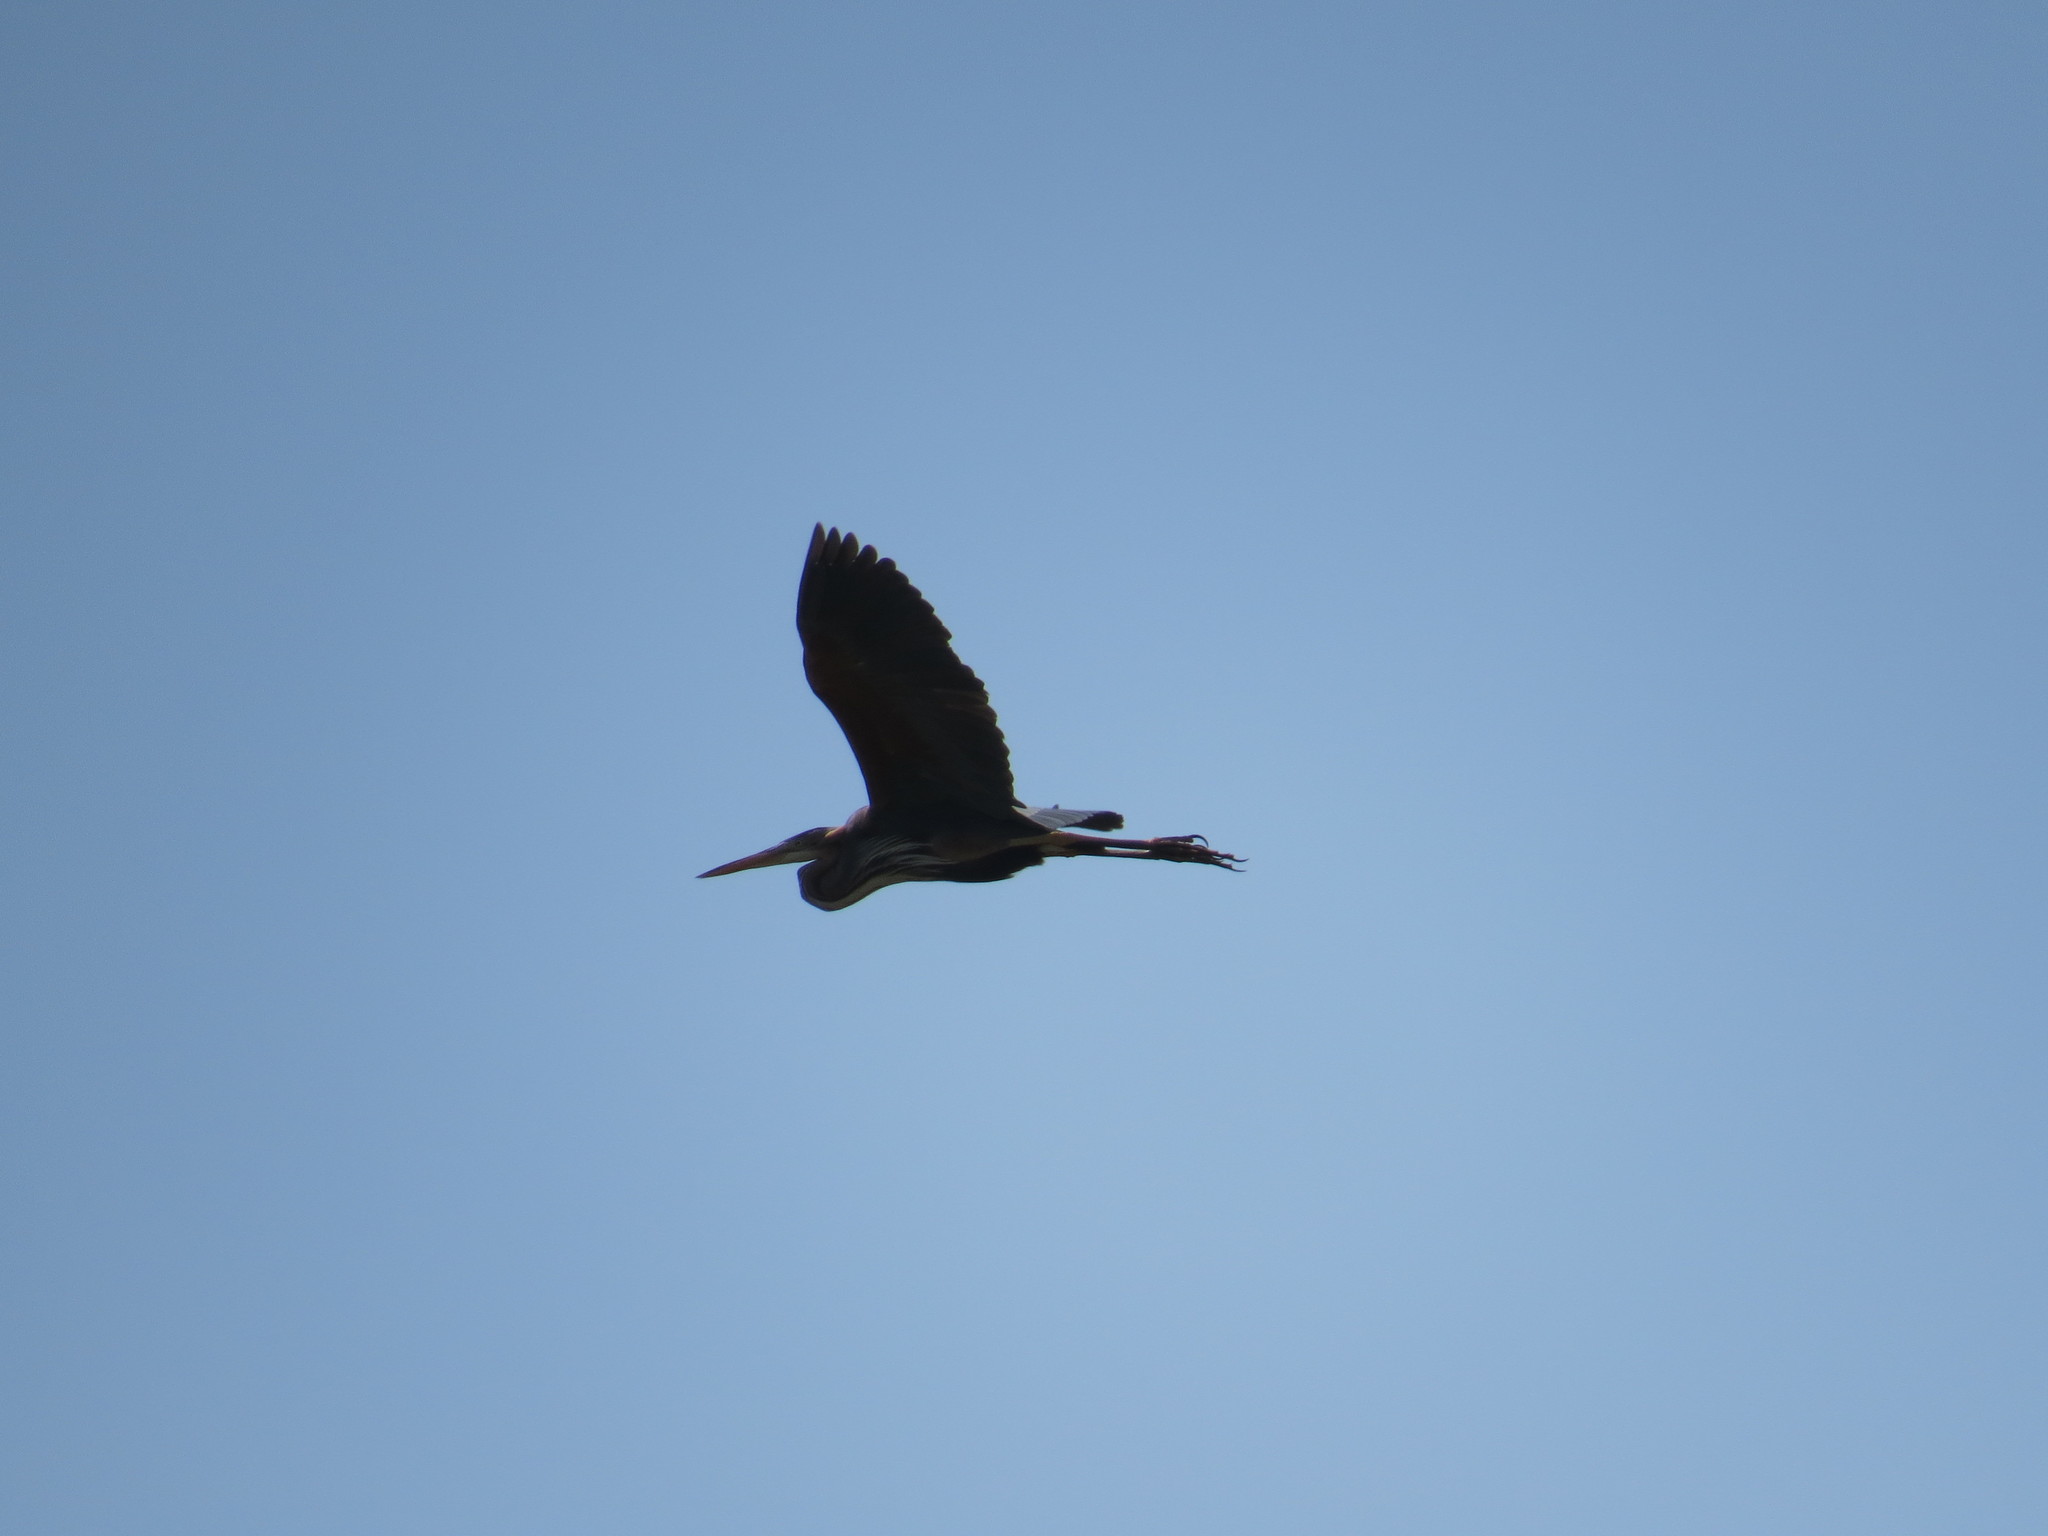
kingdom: Animalia
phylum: Chordata
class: Aves
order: Pelecaniformes
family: Ardeidae
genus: Ardea
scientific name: Ardea purpurea
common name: Purple heron
